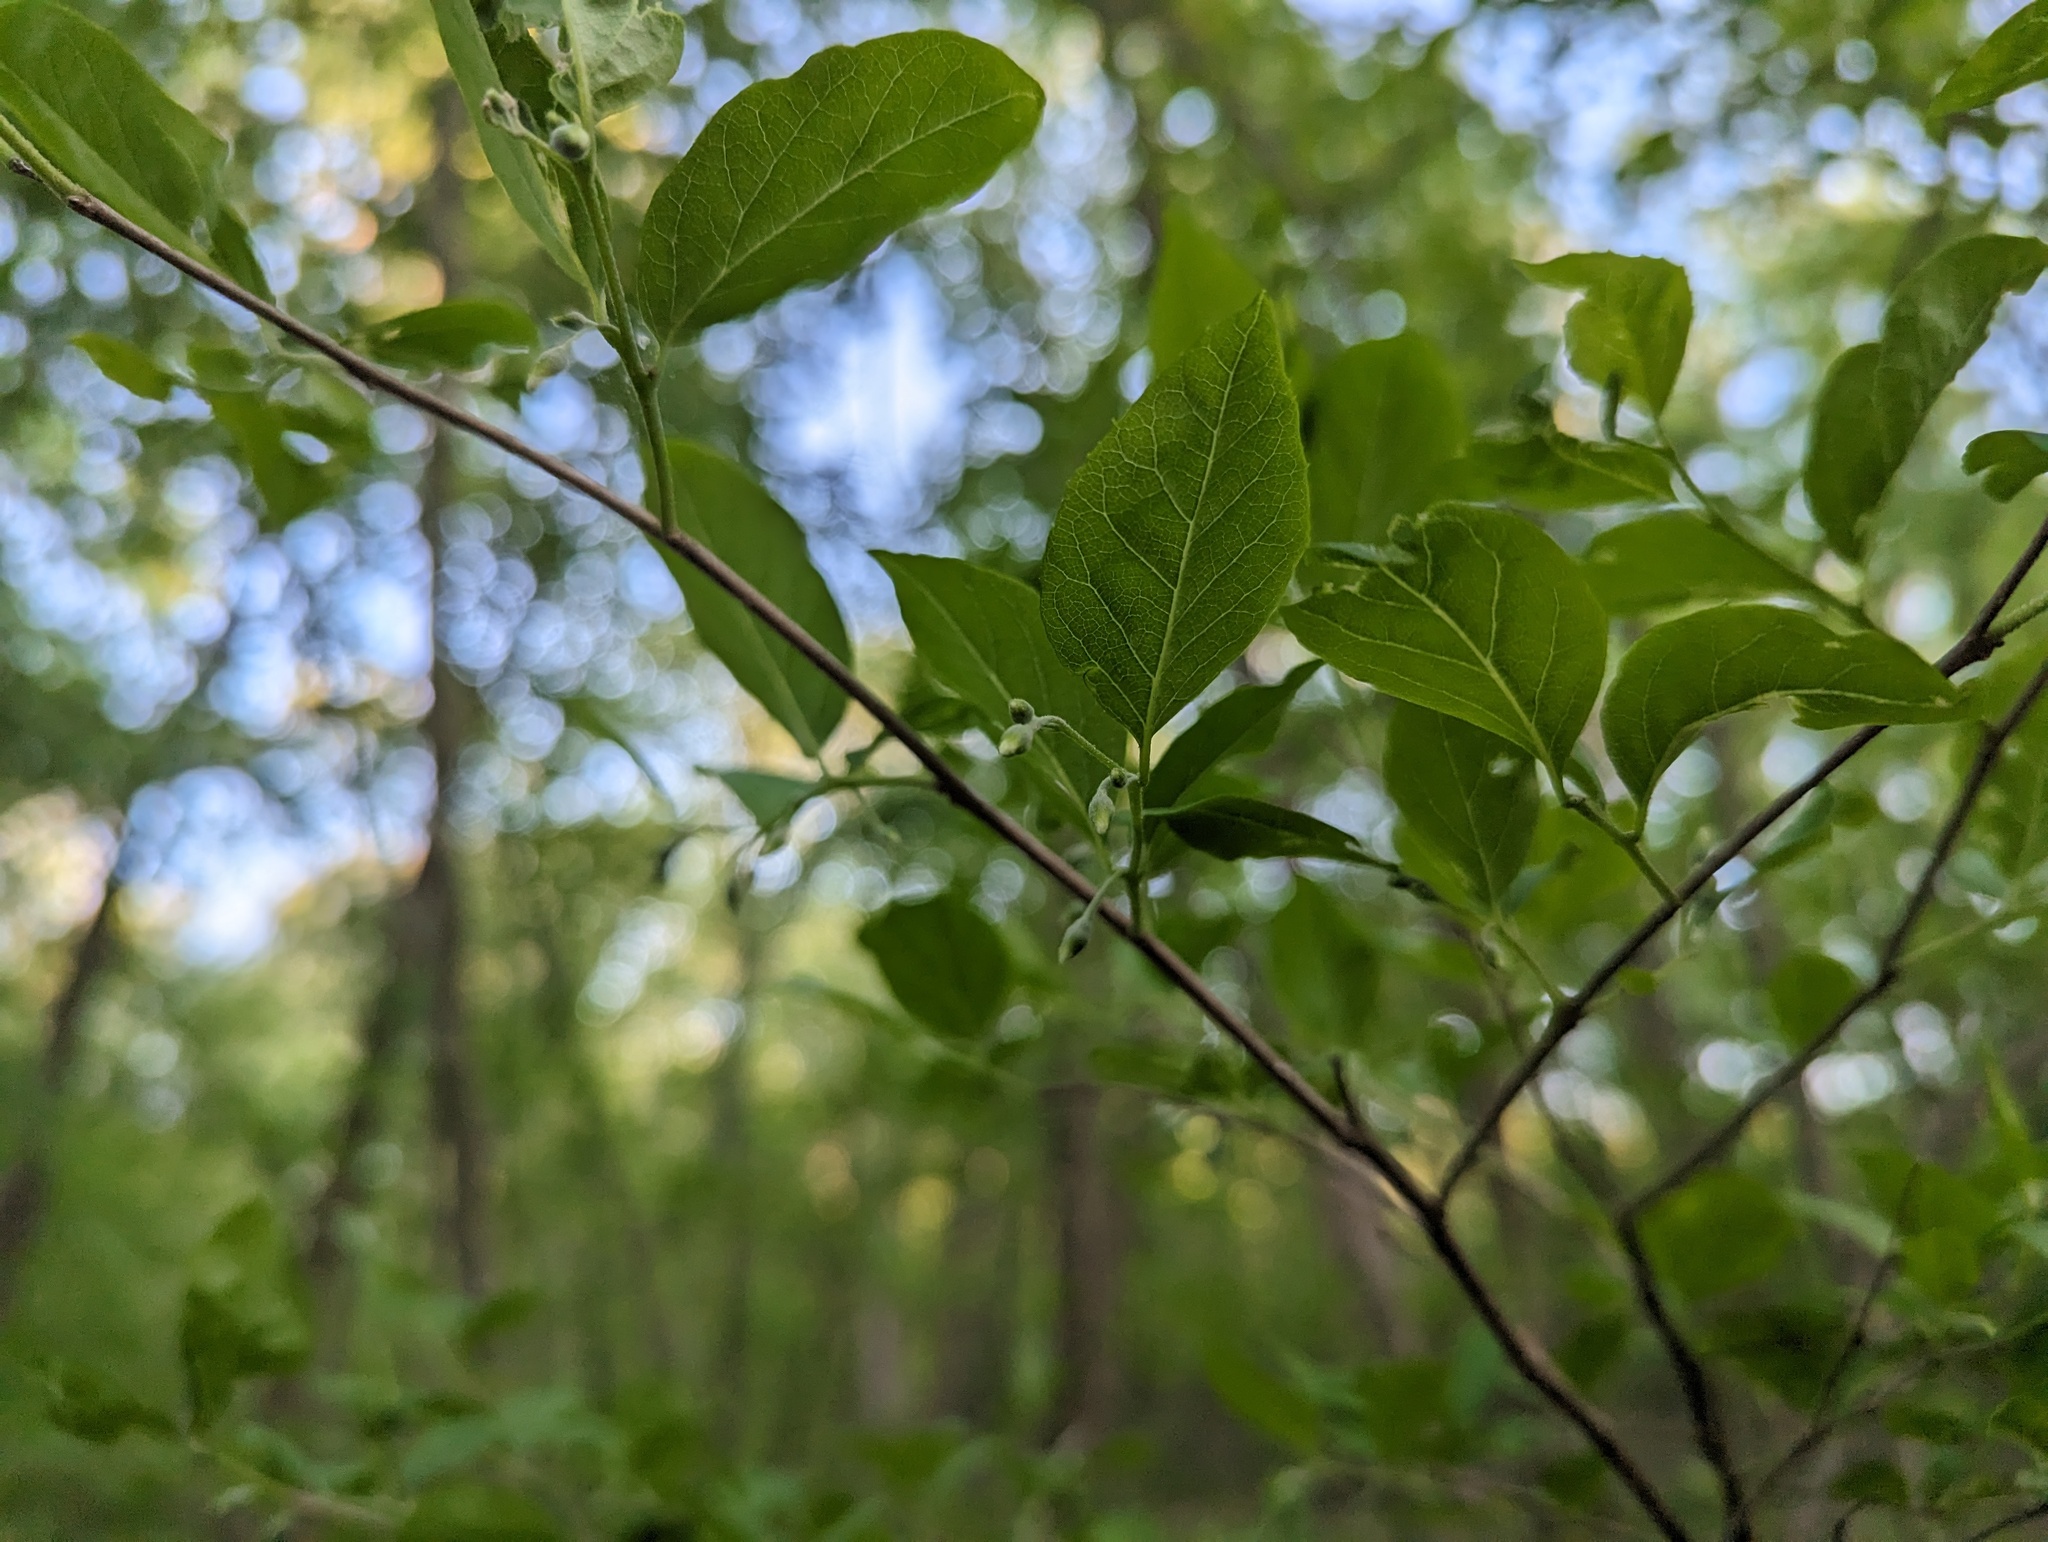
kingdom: Plantae
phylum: Tracheophyta
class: Magnoliopsida
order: Ericales
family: Styracaceae
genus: Styrax
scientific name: Styrax americanus
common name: American snowbell
